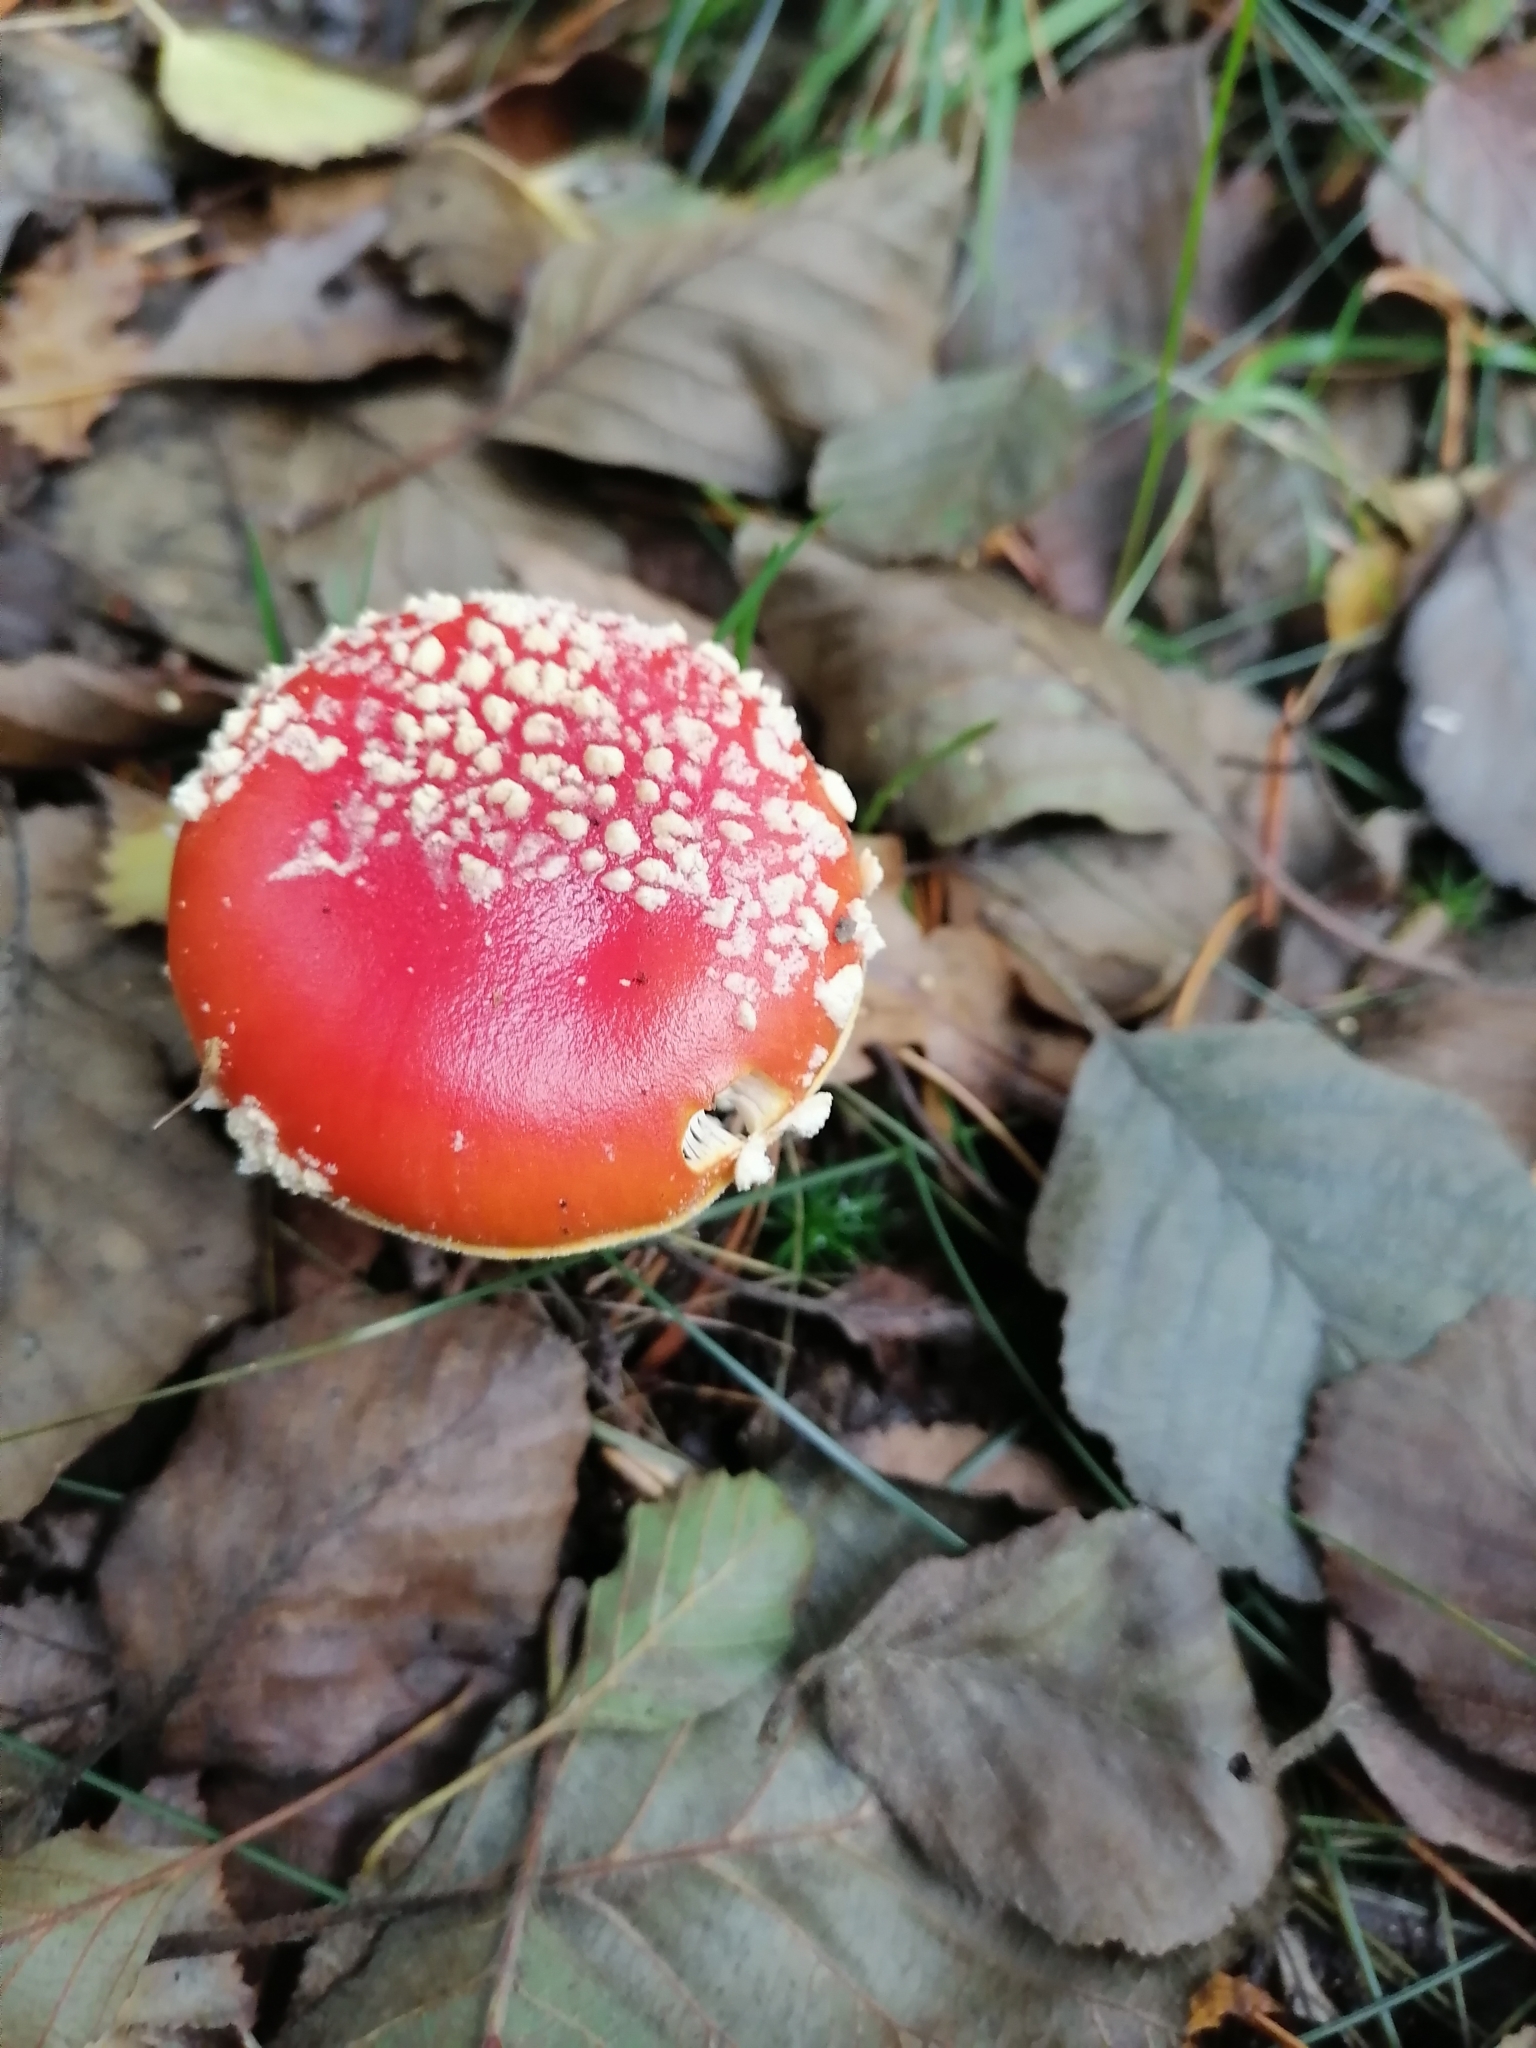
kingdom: Fungi
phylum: Basidiomycota
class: Agaricomycetes
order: Agaricales
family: Amanitaceae
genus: Amanita
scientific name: Amanita muscaria
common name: Fly agaric
